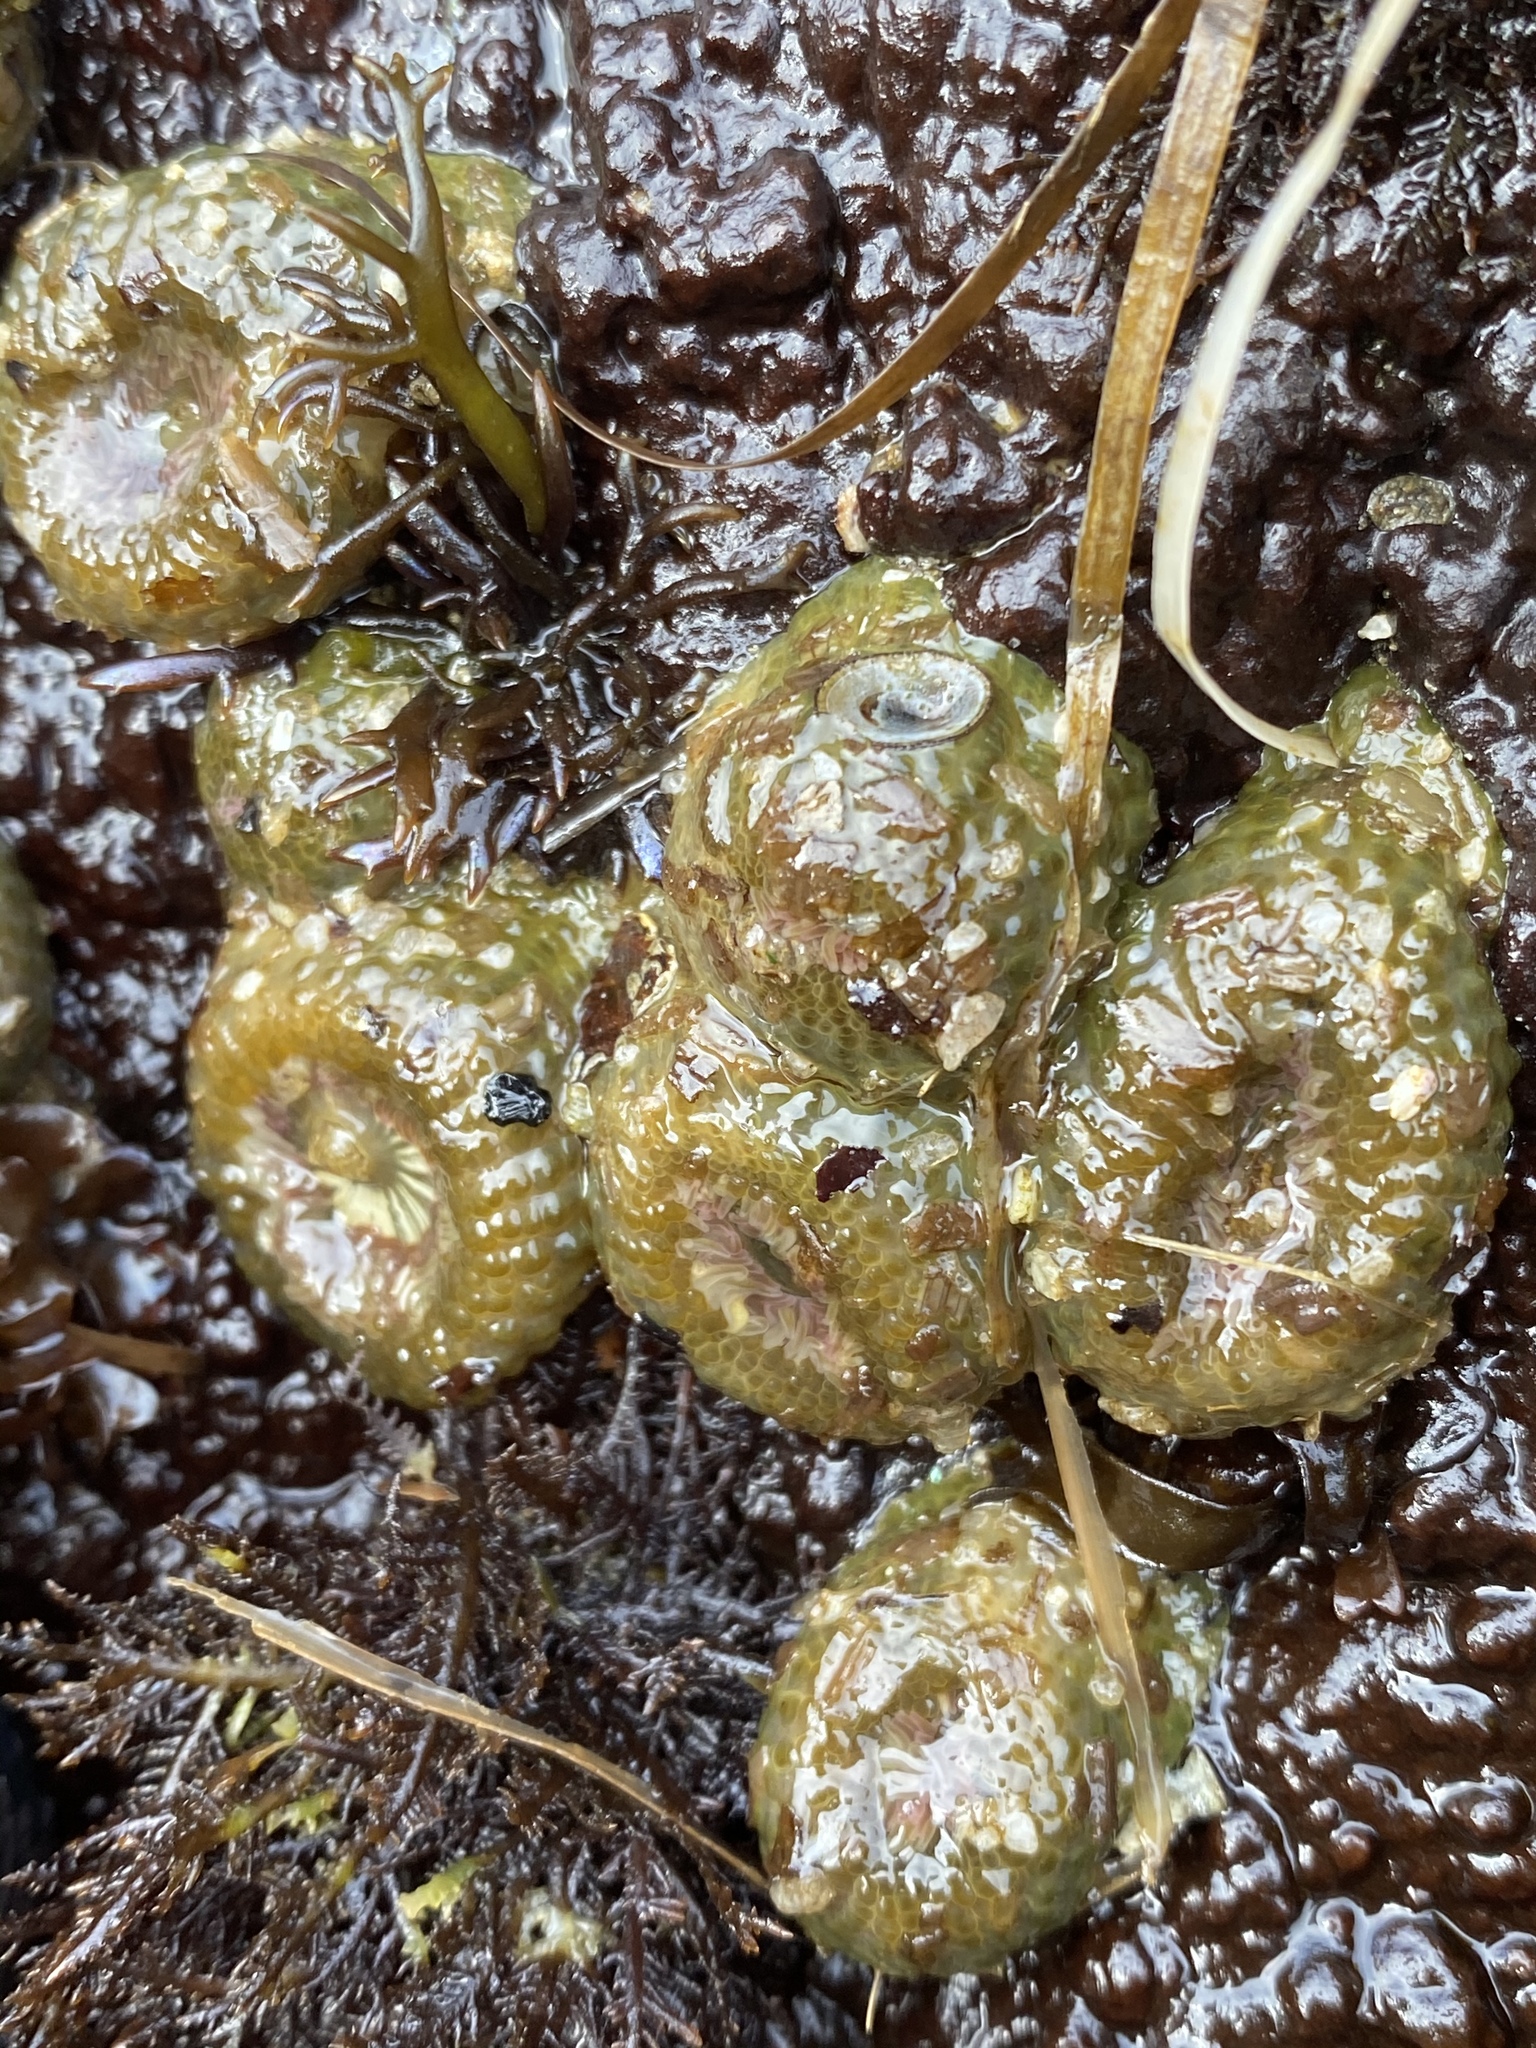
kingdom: Animalia
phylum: Cnidaria
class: Anthozoa
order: Actiniaria
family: Actiniidae
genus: Anthopleura
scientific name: Anthopleura elegantissima
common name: Clonal anemone
